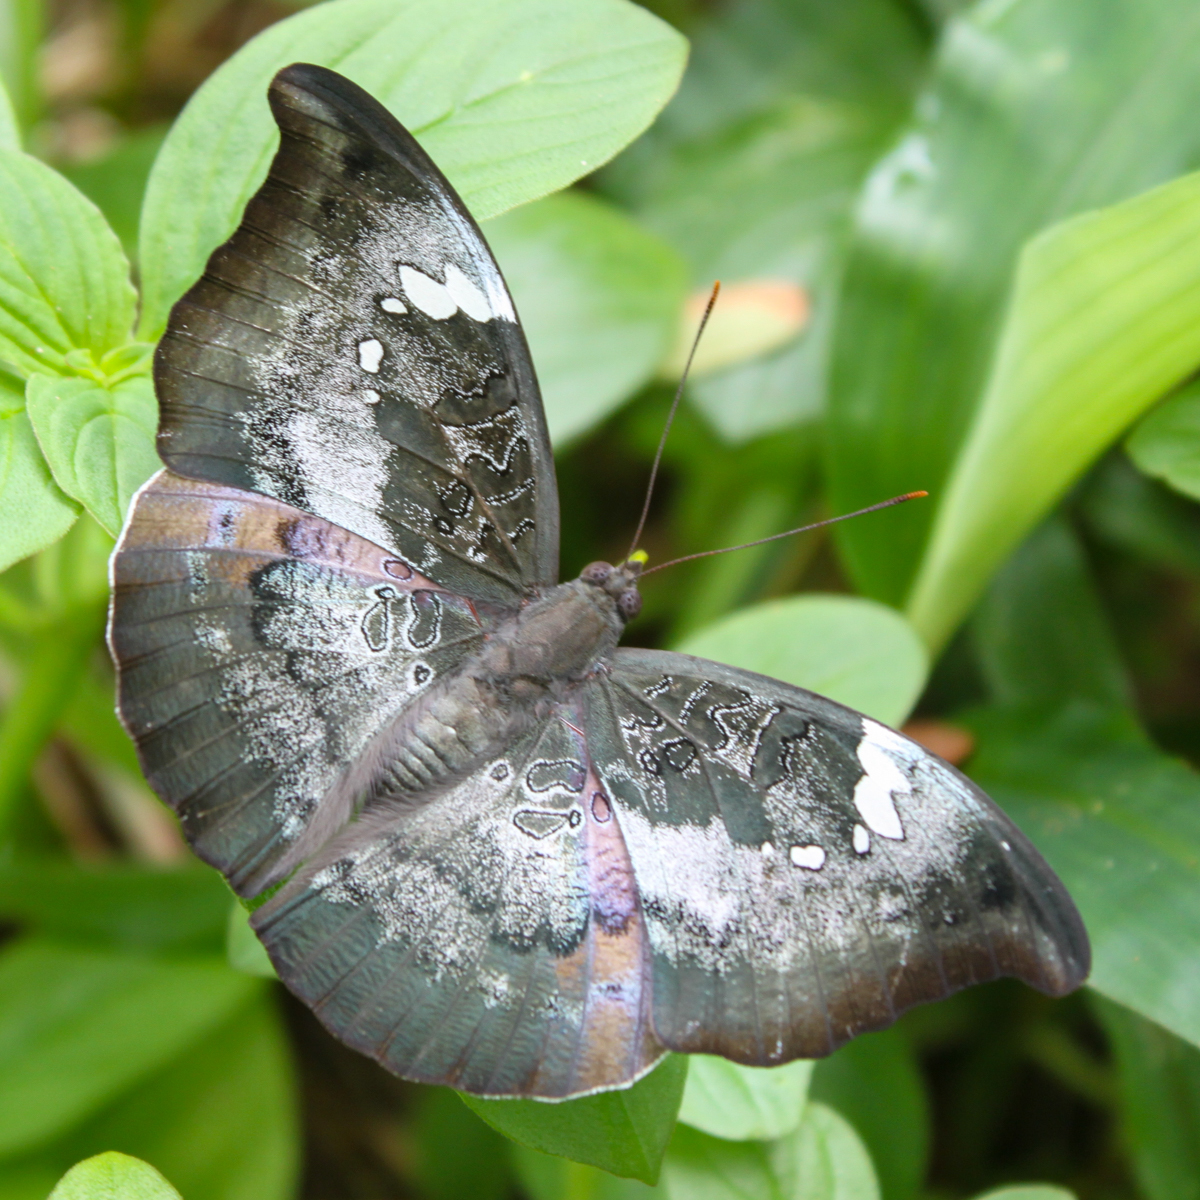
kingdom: Animalia
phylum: Arthropoda
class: Insecta
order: Lepidoptera
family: Nymphalidae
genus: Euthalia
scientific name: Euthalia anosia
